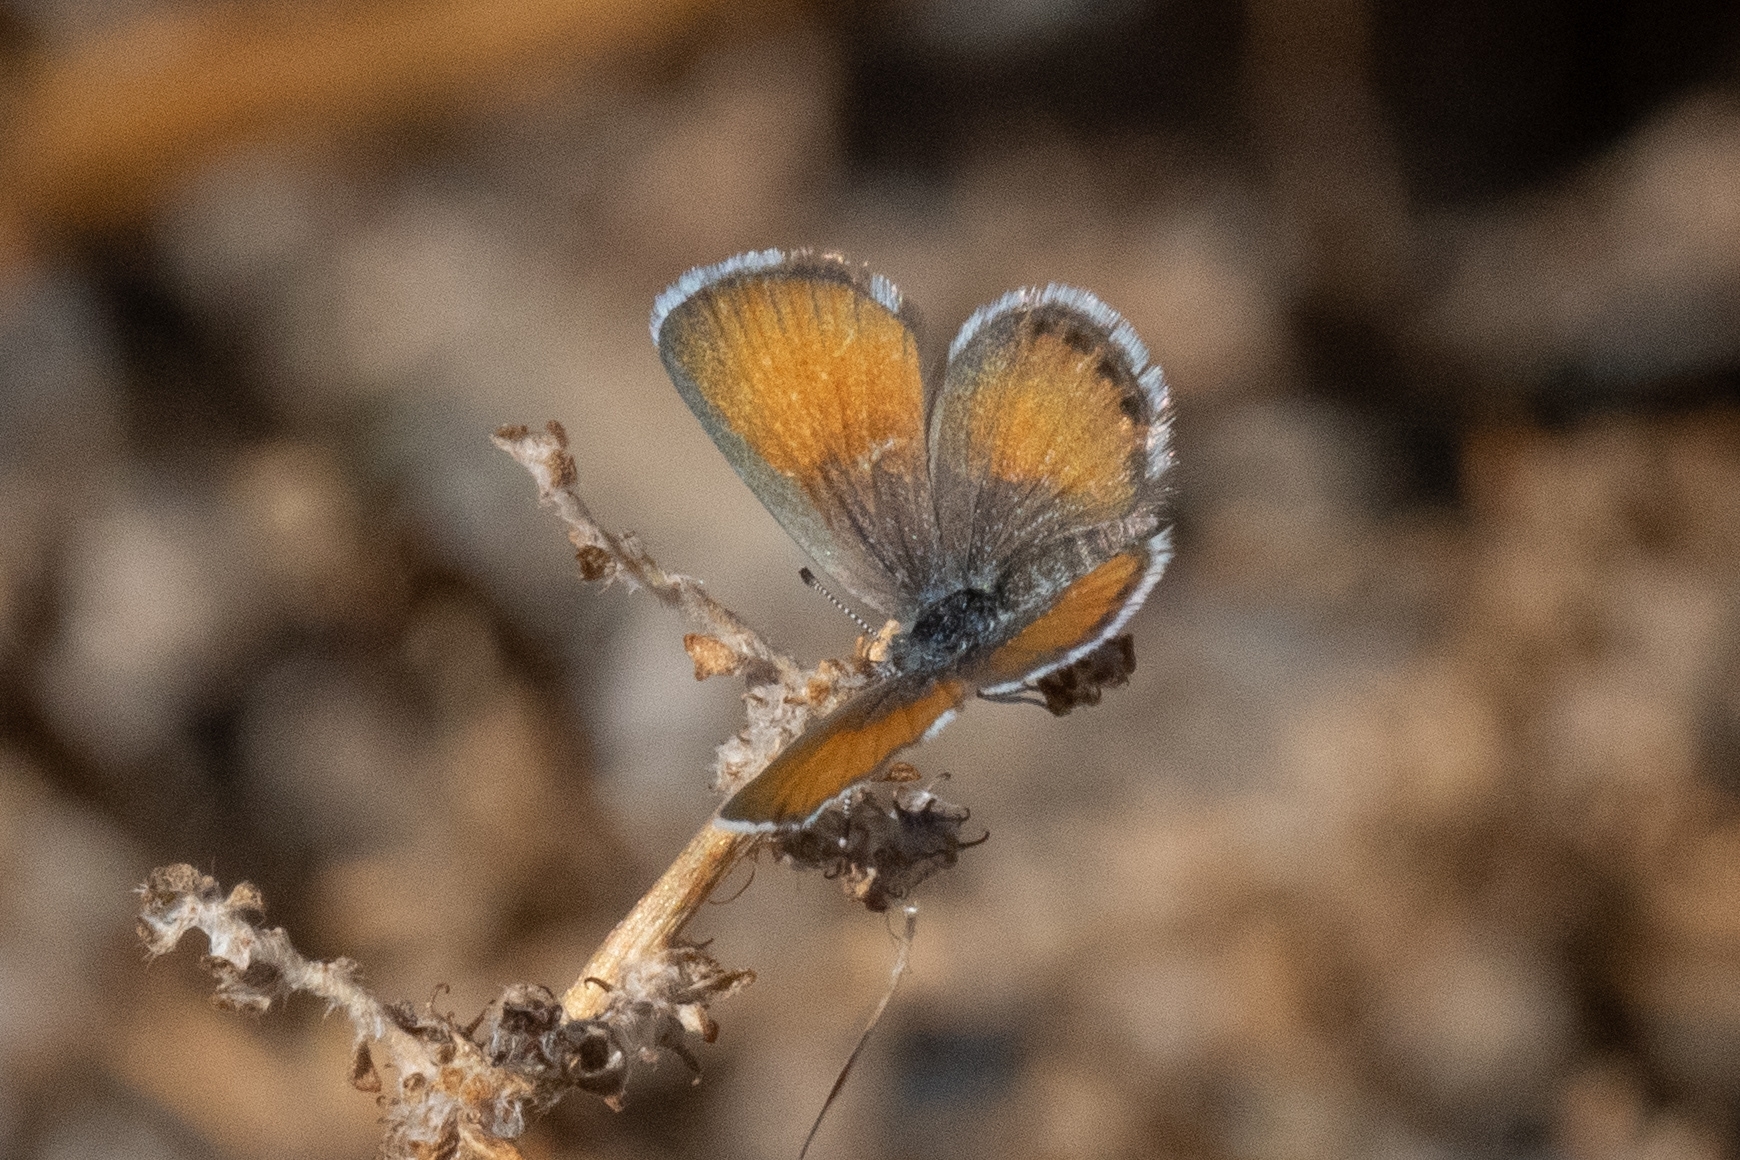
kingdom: Animalia
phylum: Arthropoda
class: Insecta
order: Lepidoptera
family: Lycaenidae
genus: Brephidium
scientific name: Brephidium exilis
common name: Pygmy blue
